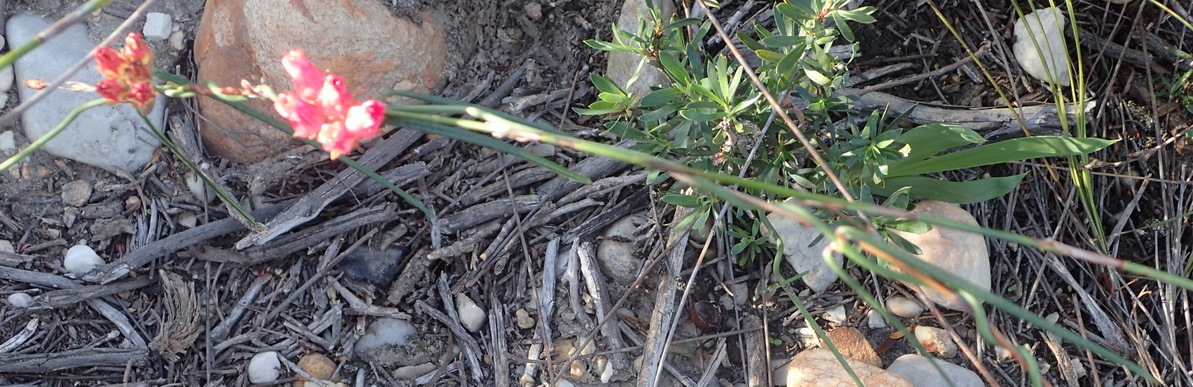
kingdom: Plantae
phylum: Tracheophyta
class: Magnoliopsida
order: Gentianales
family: Apocynaceae
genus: Microloma
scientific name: Microloma tenuifolium
